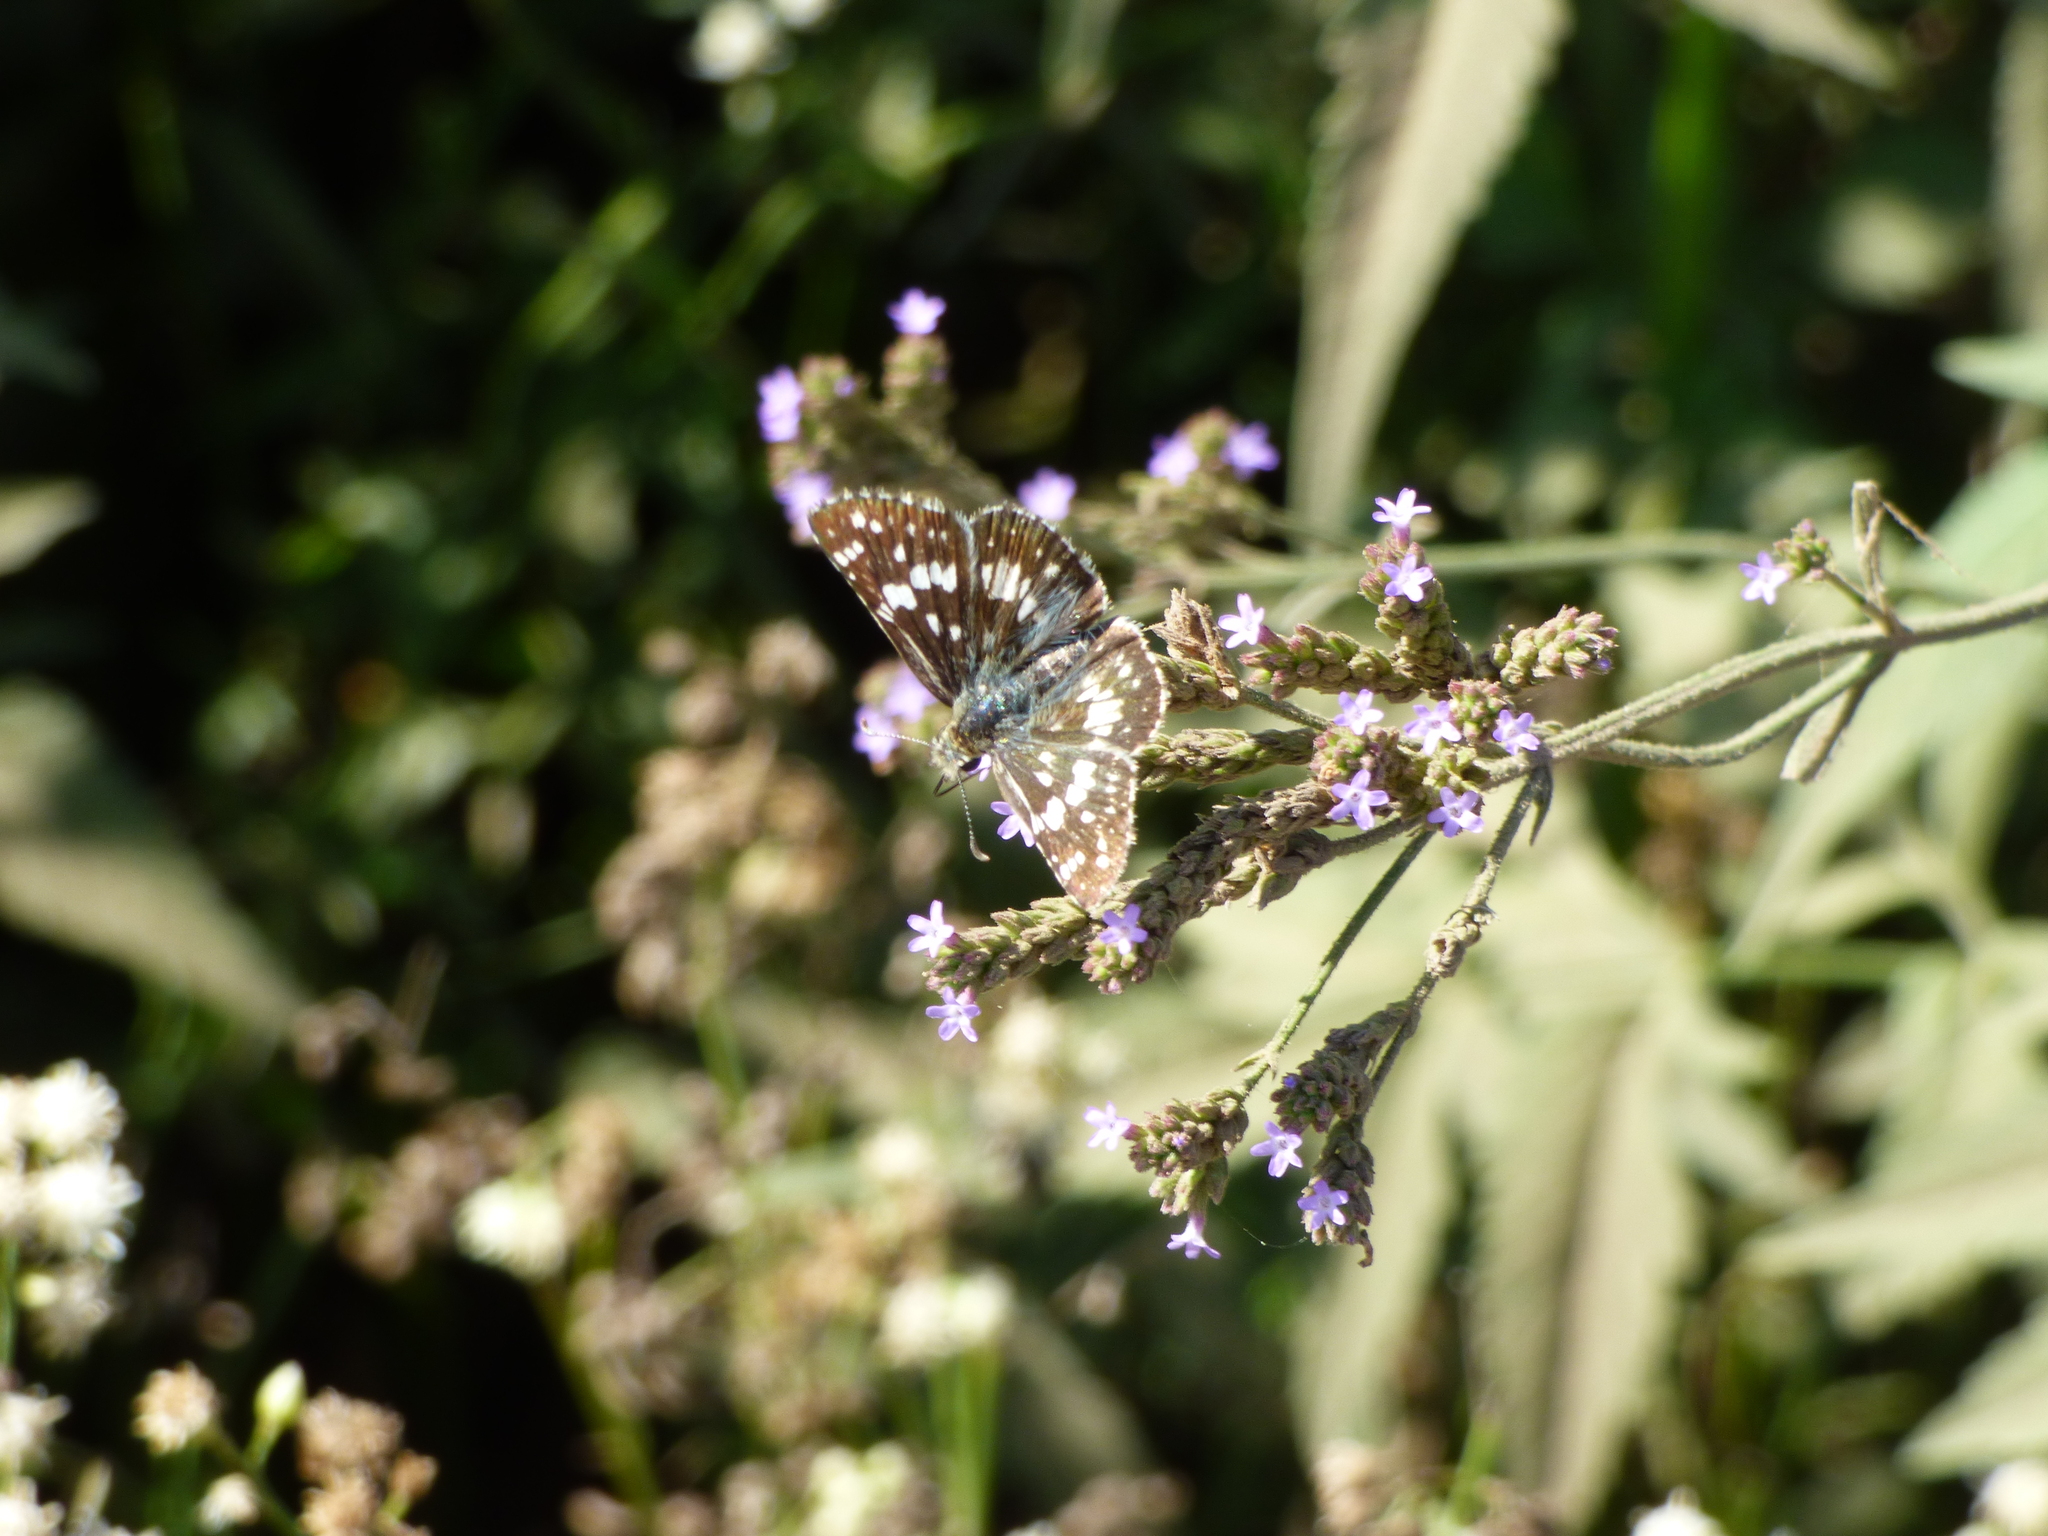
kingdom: Animalia
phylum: Arthropoda
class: Insecta
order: Lepidoptera
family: Hesperiidae
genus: Burnsius
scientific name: Burnsius orcynoides
